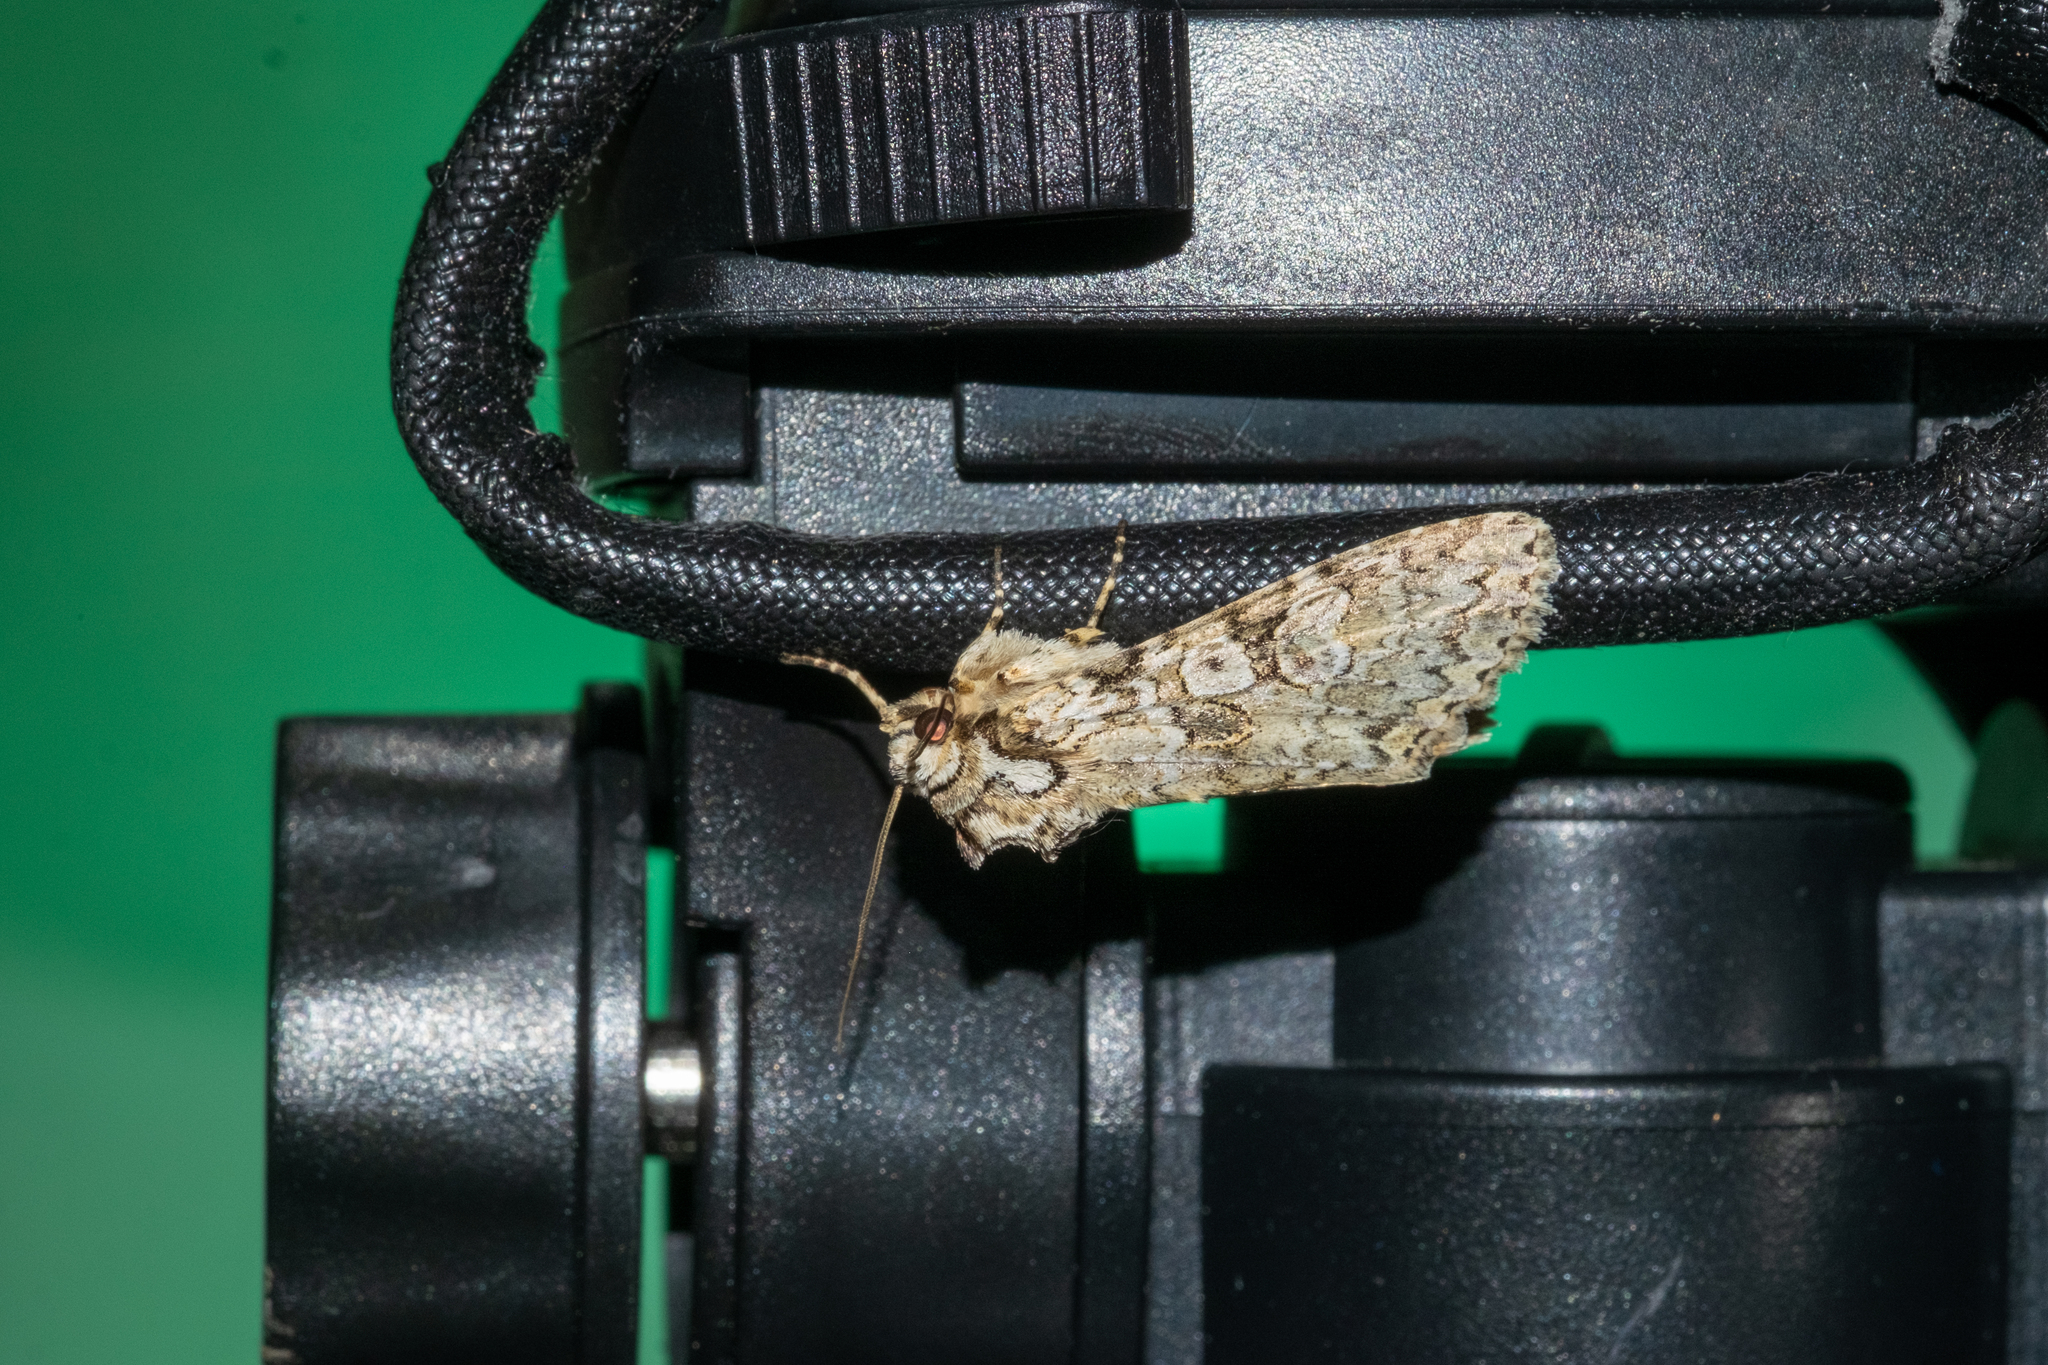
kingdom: Animalia
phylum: Arthropoda
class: Insecta
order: Lepidoptera
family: Noctuidae
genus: Polia
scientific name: Polia nebulosa
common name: Grey arches
